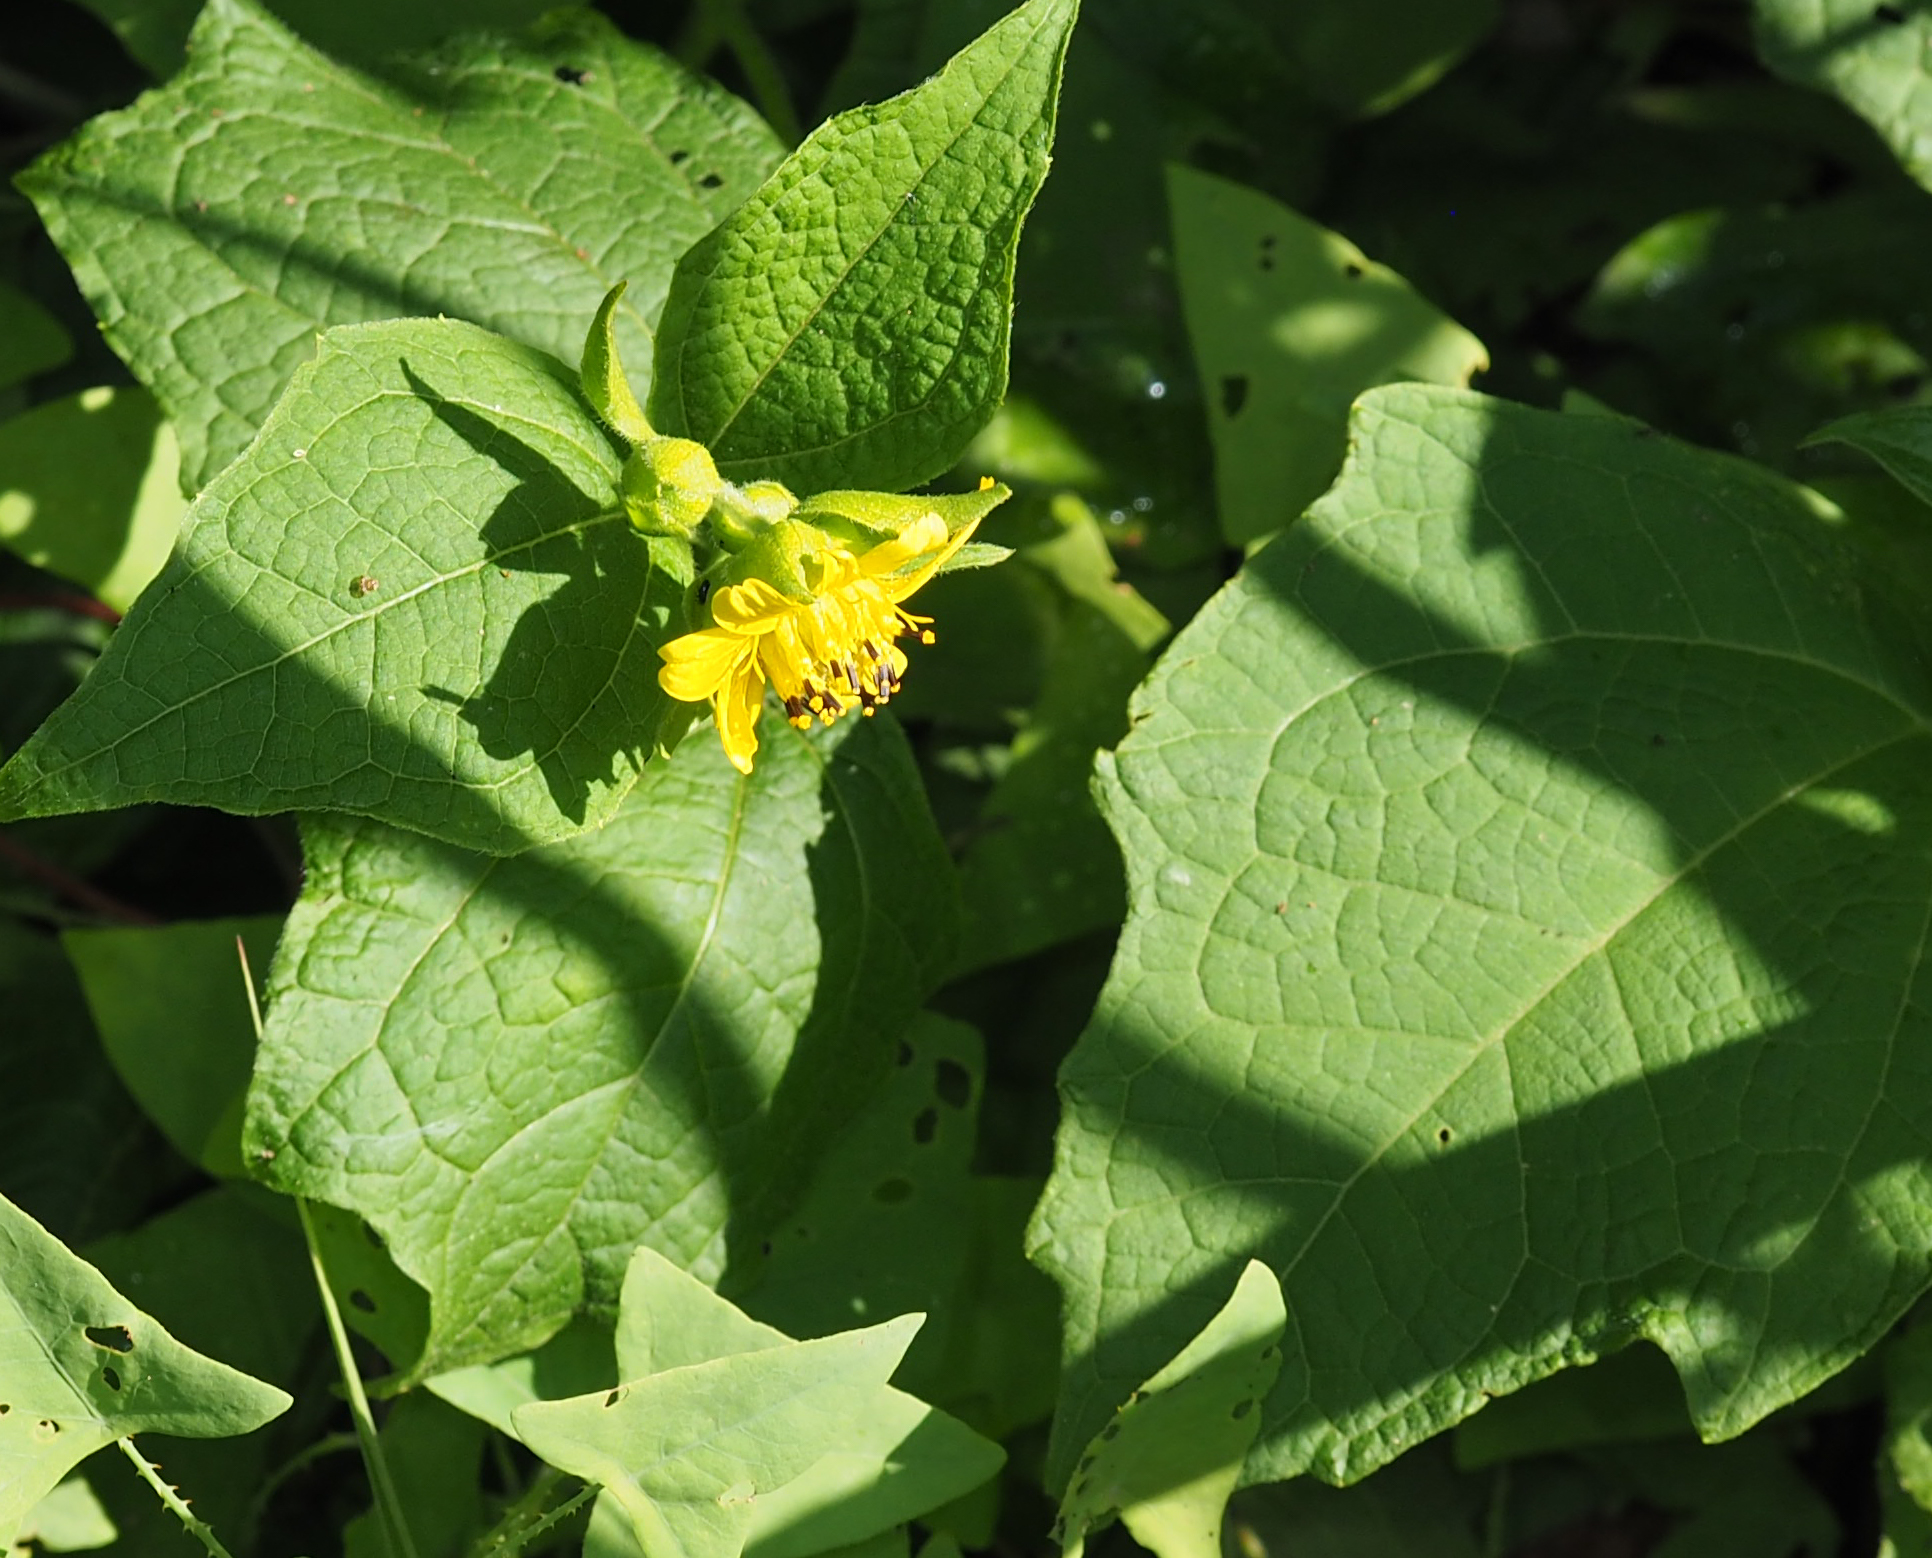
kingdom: Plantae
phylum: Tracheophyta
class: Magnoliopsida
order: Asterales
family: Asteraceae
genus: Smallanthus
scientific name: Smallanthus uvedalia
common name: Bear's-foot
